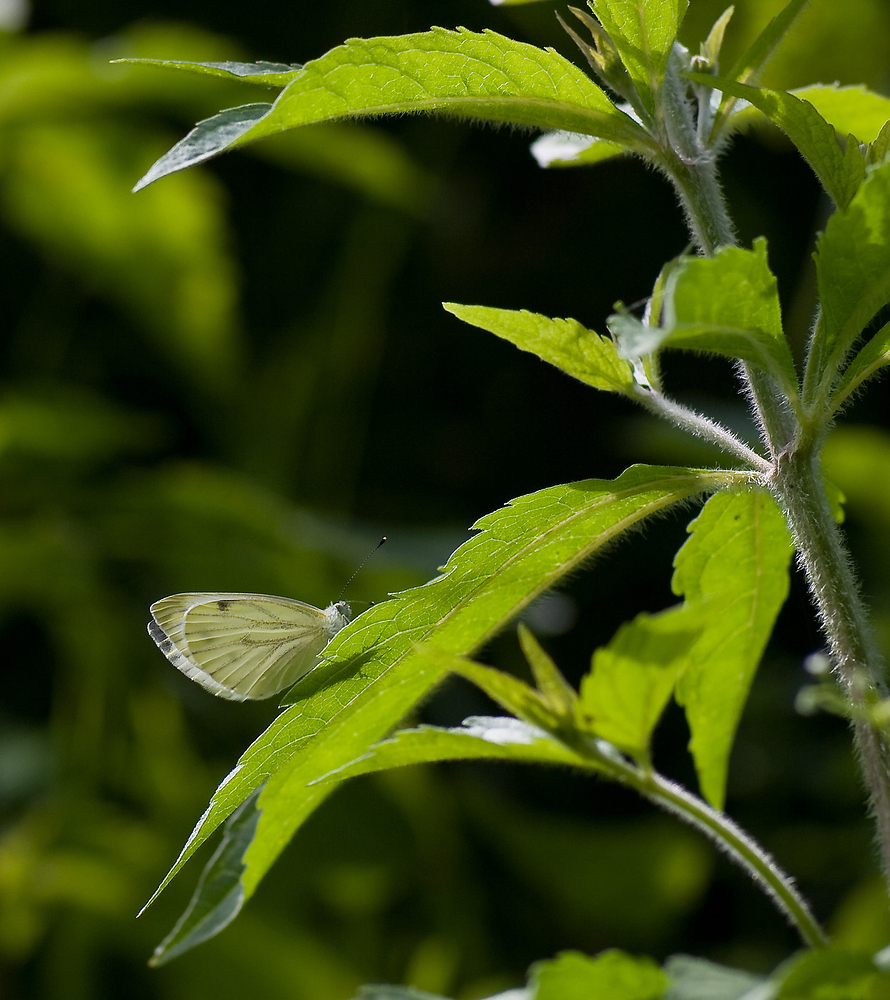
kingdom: Animalia
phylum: Arthropoda
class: Insecta
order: Lepidoptera
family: Pieridae
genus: Pieris
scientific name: Pieris napi
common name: Green-veined white
